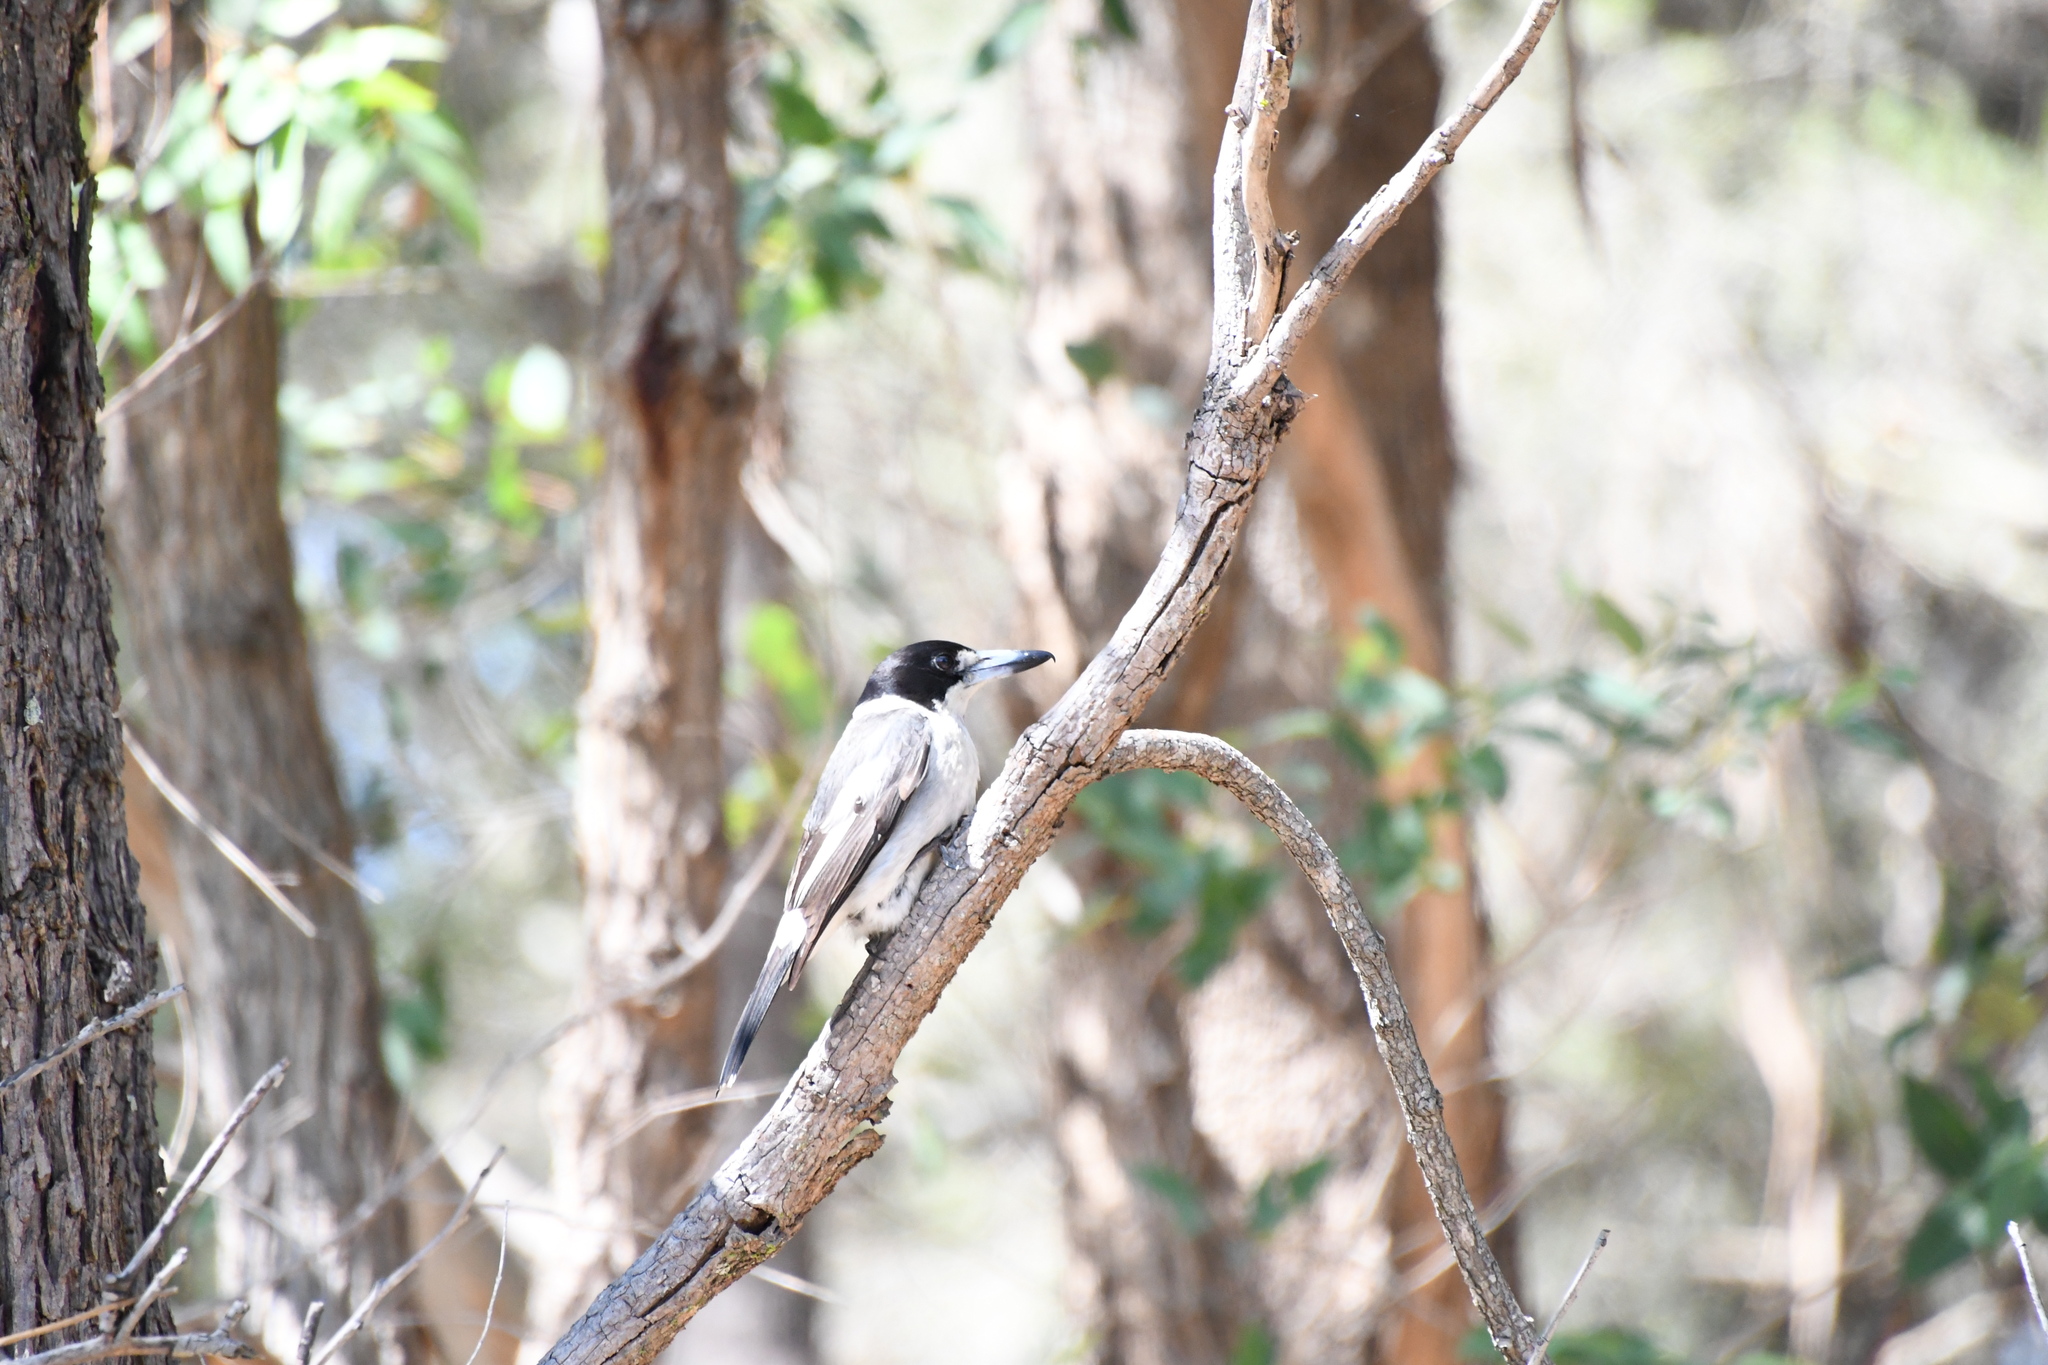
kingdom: Animalia
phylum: Chordata
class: Aves
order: Passeriformes
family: Cracticidae
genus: Cracticus
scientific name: Cracticus torquatus
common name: Grey butcherbird
